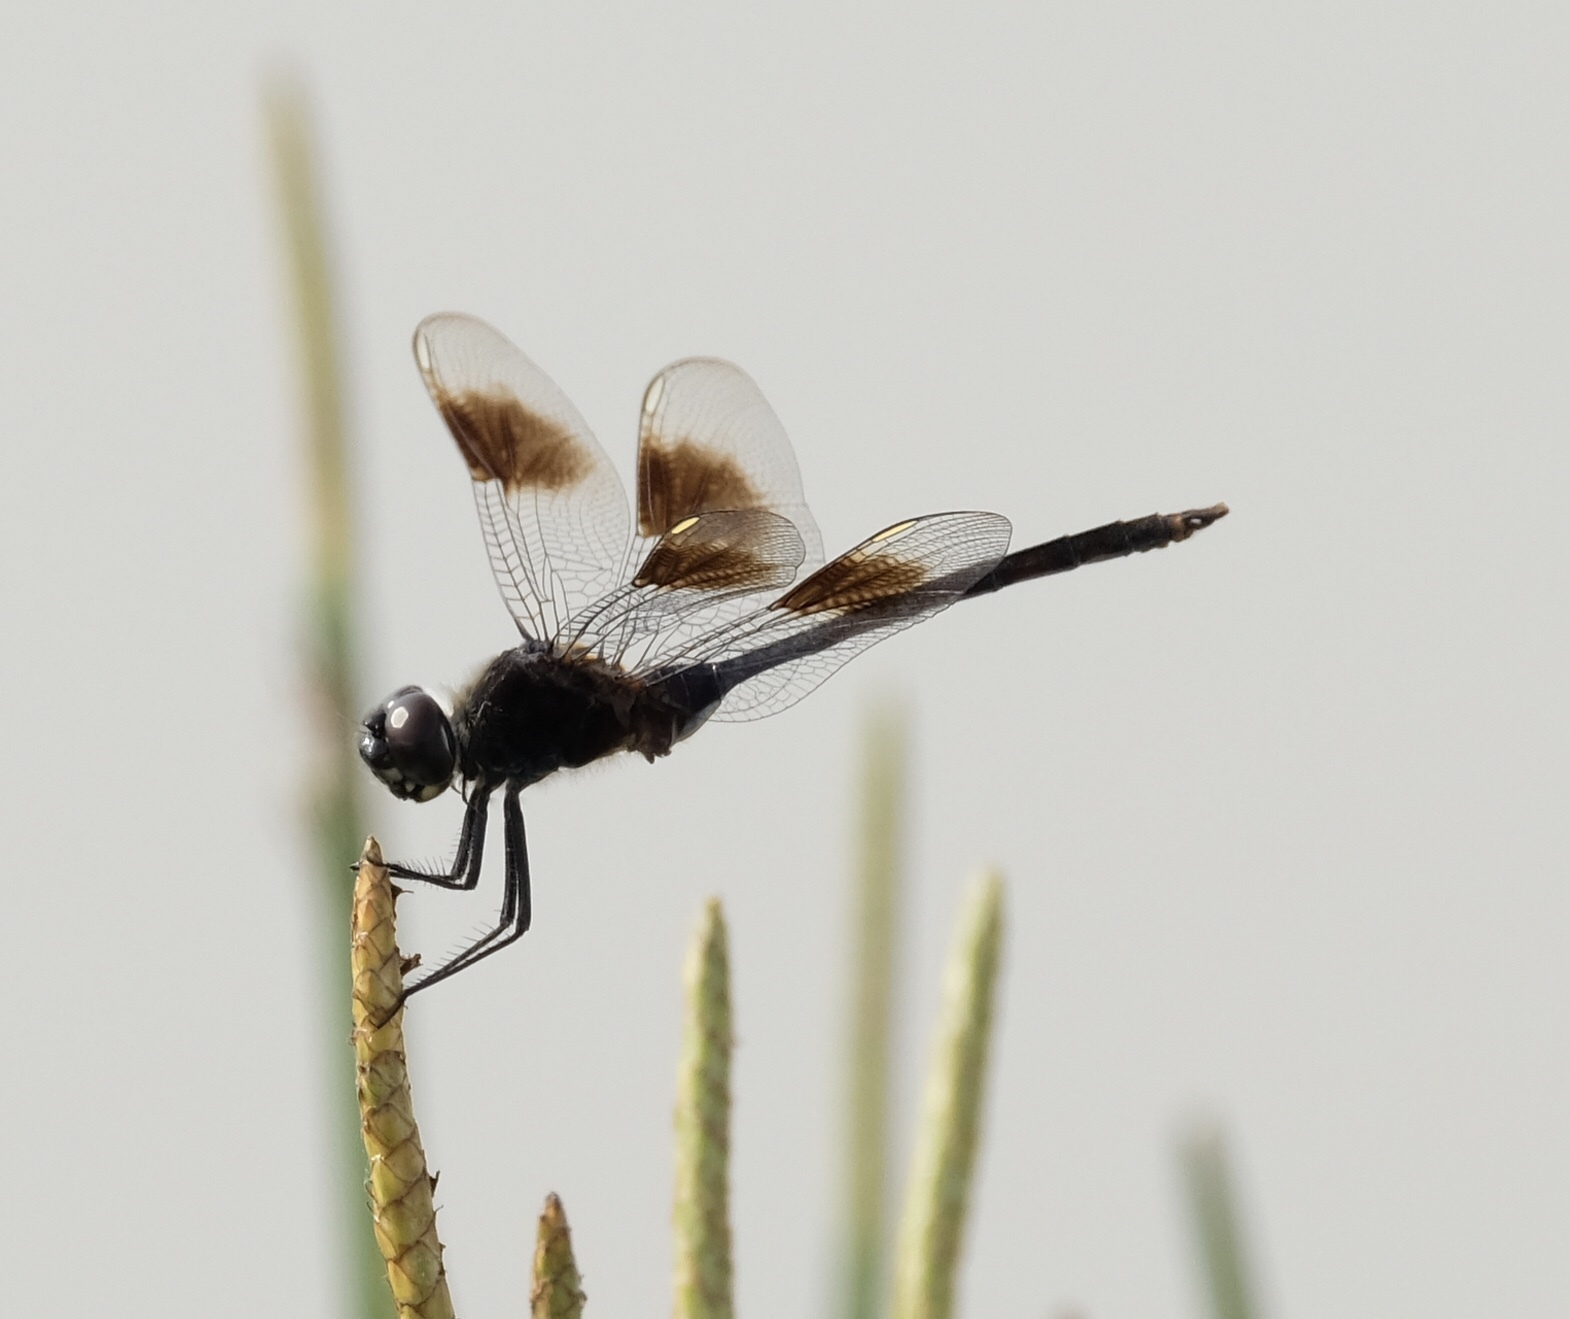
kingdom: Animalia
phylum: Arthropoda
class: Insecta
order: Odonata
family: Libellulidae
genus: Brachymesia
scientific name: Brachymesia gravida
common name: Four-spotted pennant
